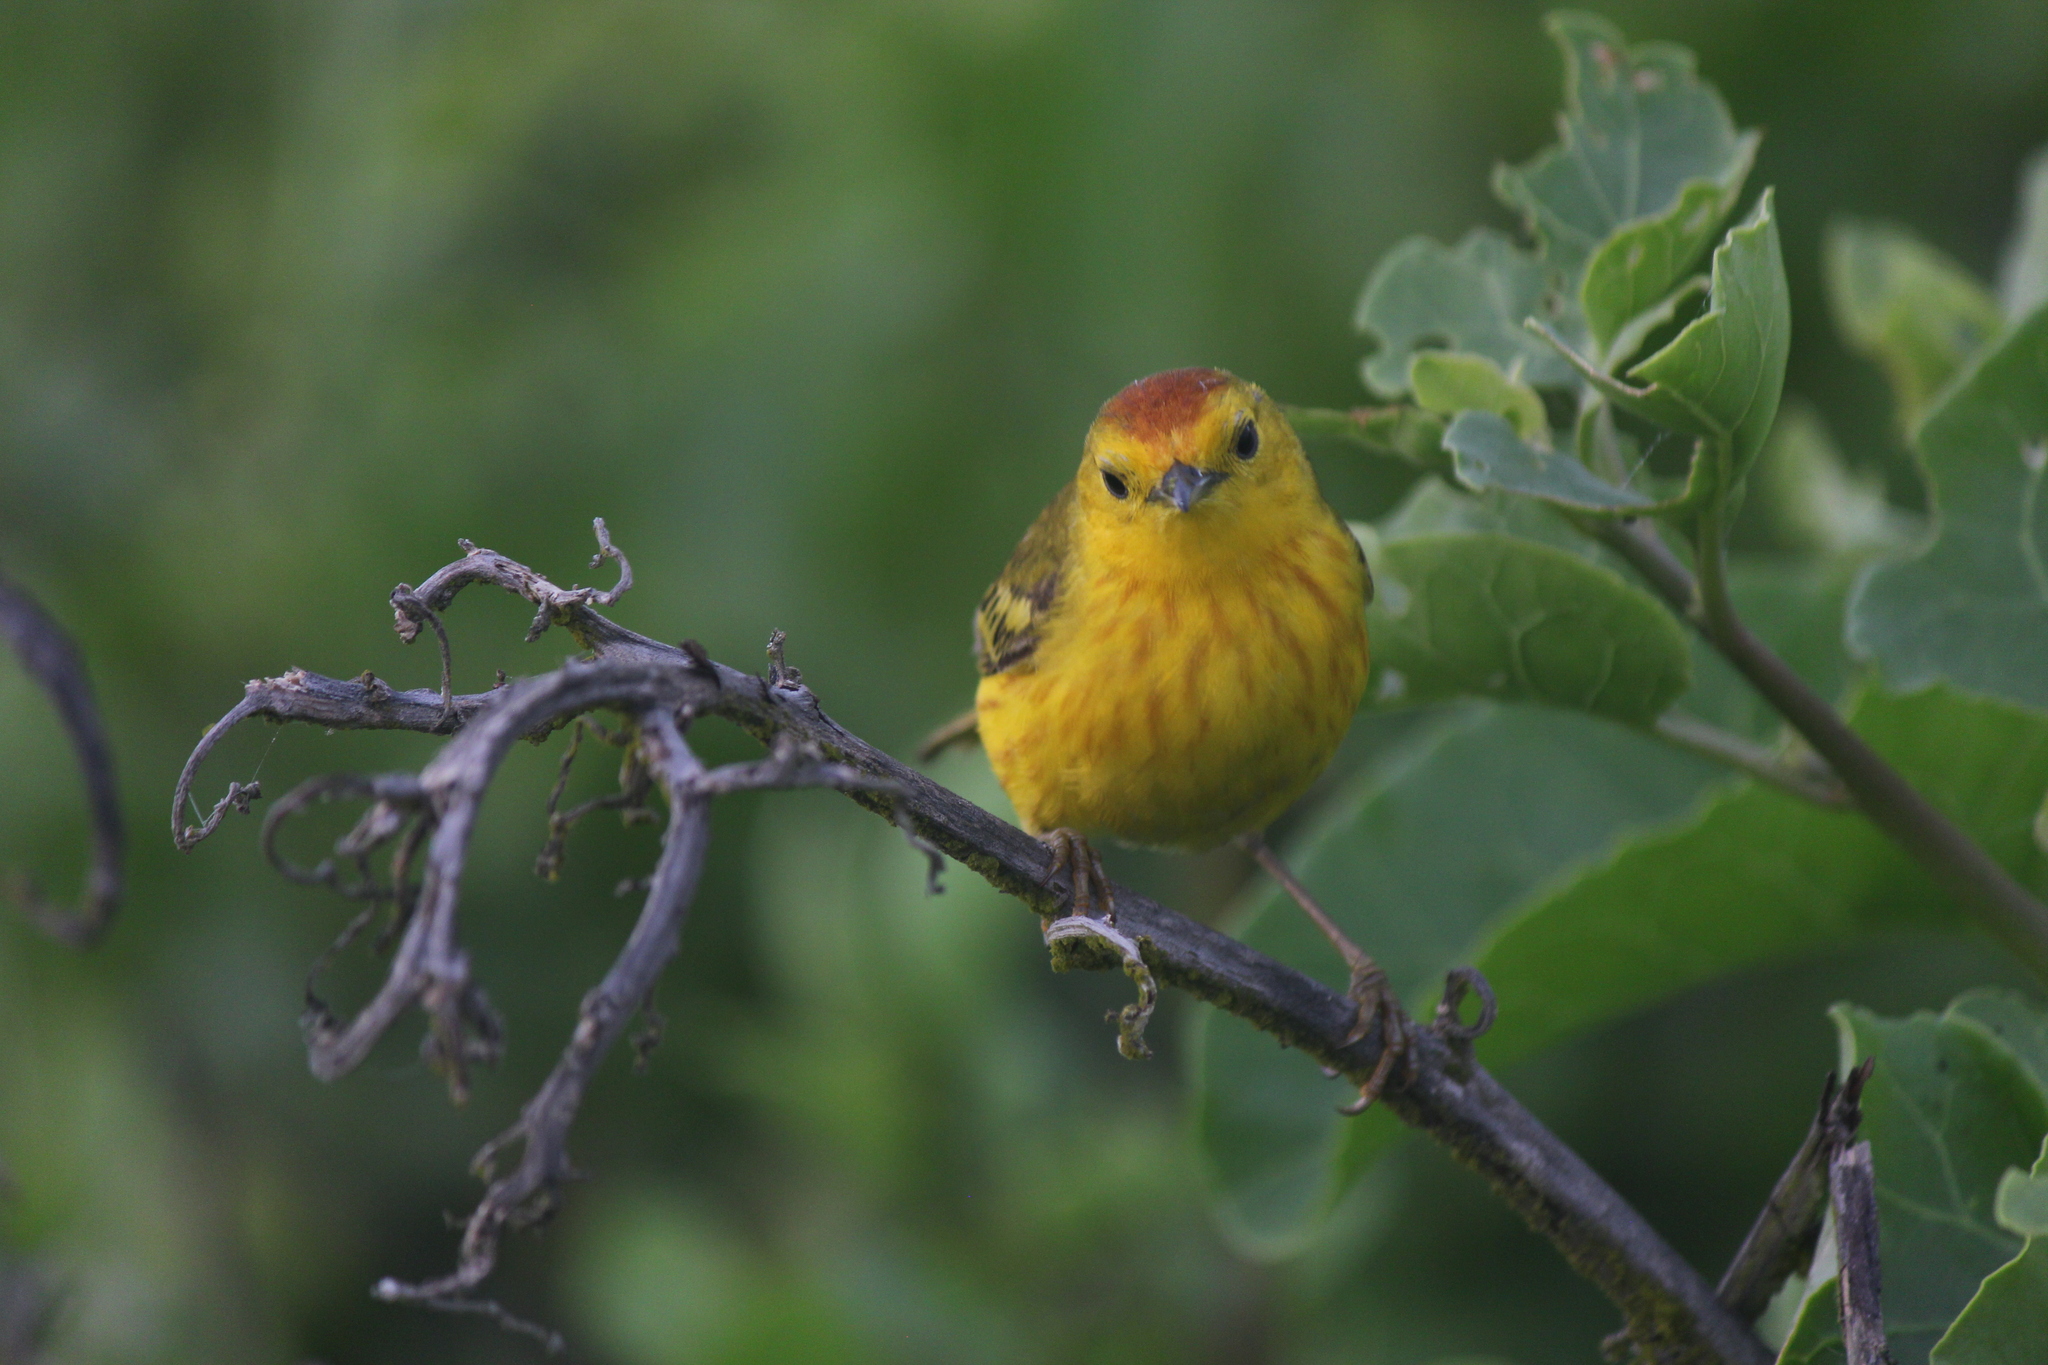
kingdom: Animalia
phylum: Chordata
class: Aves
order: Passeriformes
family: Parulidae
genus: Setophaga
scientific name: Setophaga petechia
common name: Yellow warbler
